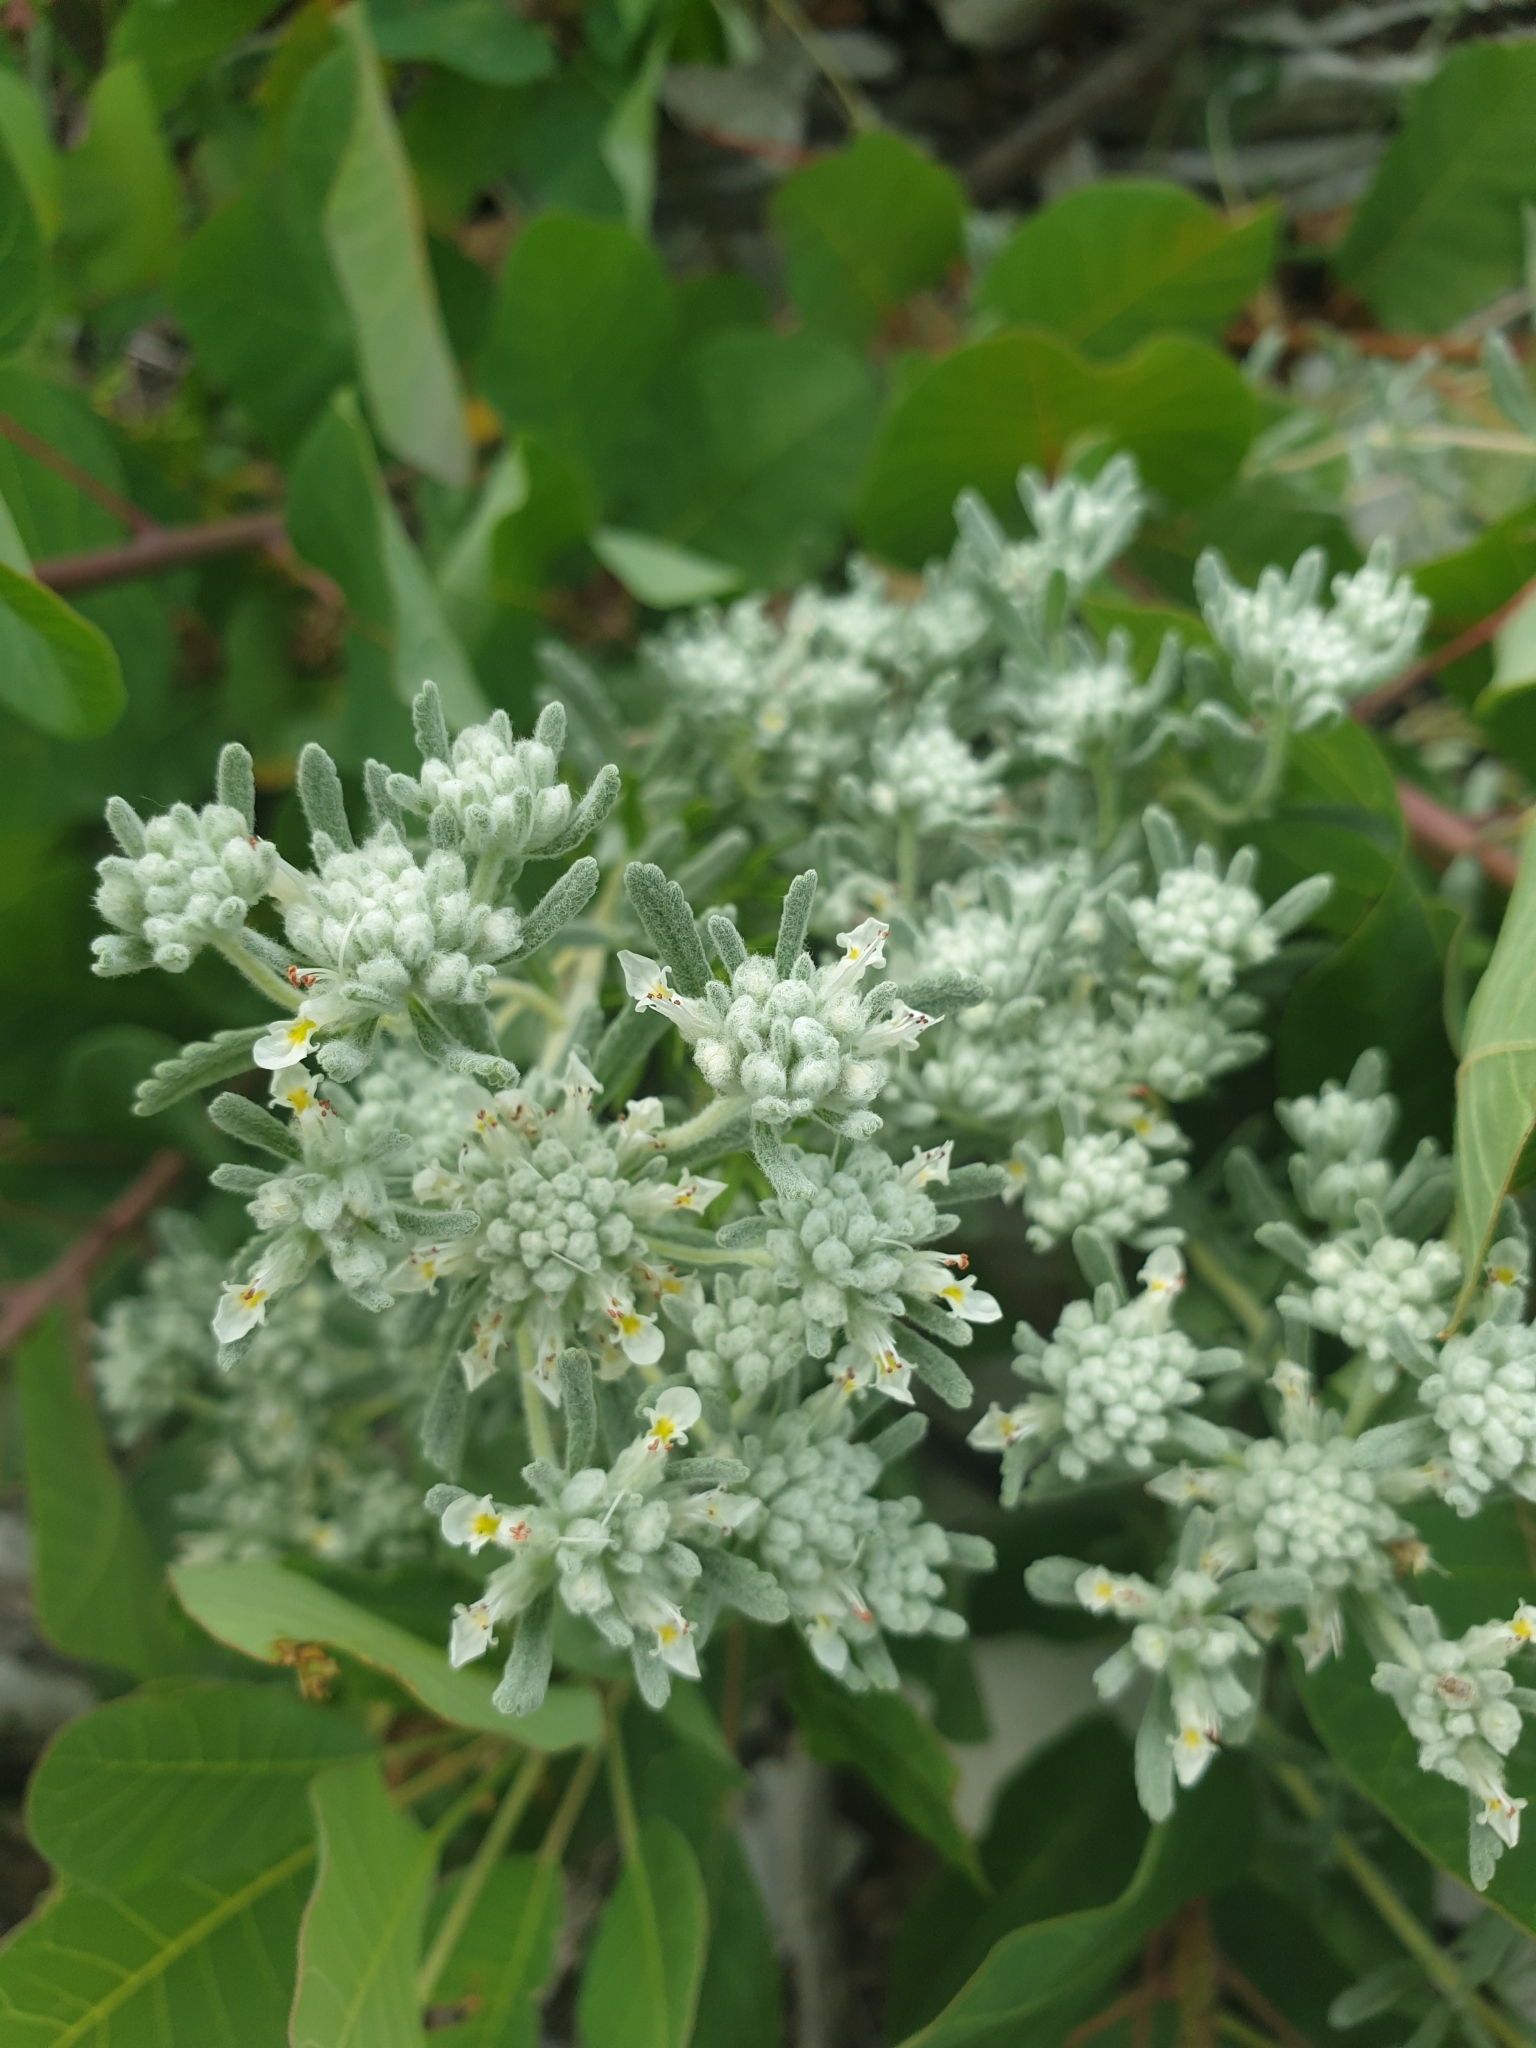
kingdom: Plantae
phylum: Tracheophyta
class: Magnoliopsida
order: Lamiales
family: Lamiaceae
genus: Teucrium
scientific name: Teucrium polium
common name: Poley
